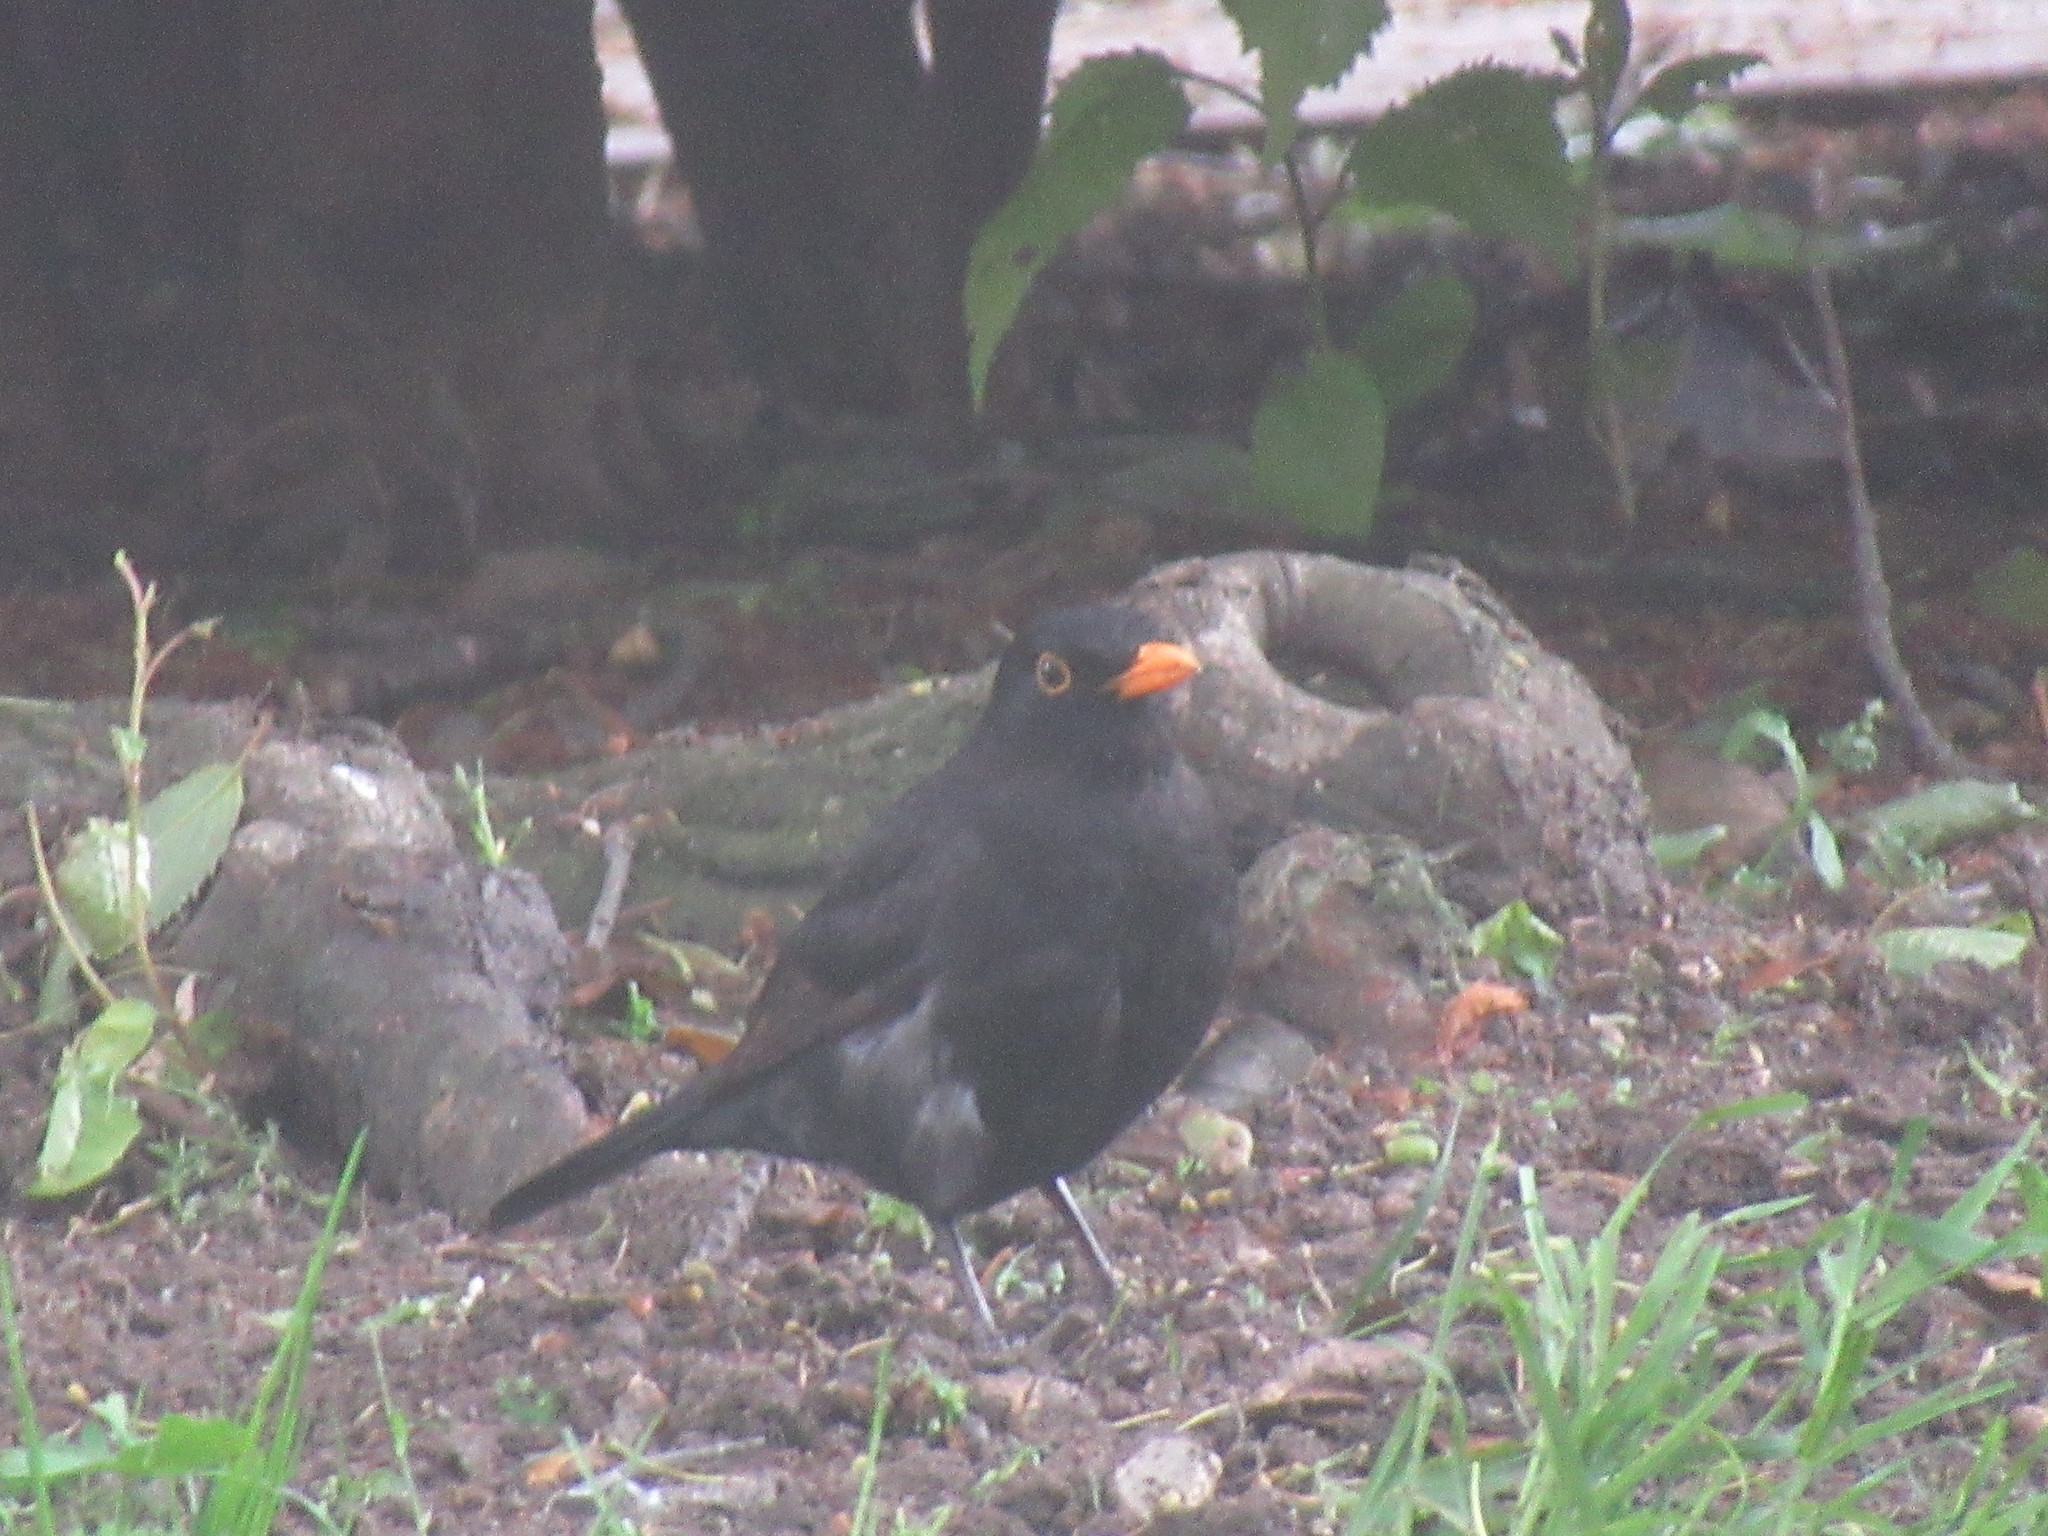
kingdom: Animalia
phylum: Chordata
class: Aves
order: Passeriformes
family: Turdidae
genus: Turdus
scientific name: Turdus merula
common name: Common blackbird
